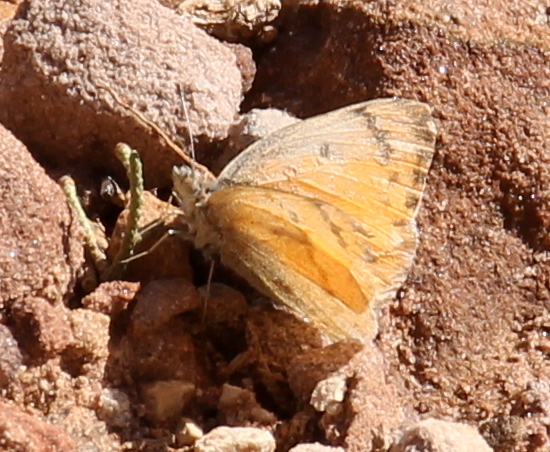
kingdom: Animalia
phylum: Arthropoda
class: Insecta
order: Lepidoptera
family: Pieridae
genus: Colotis
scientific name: Colotis fausta
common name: Large salmon arab
